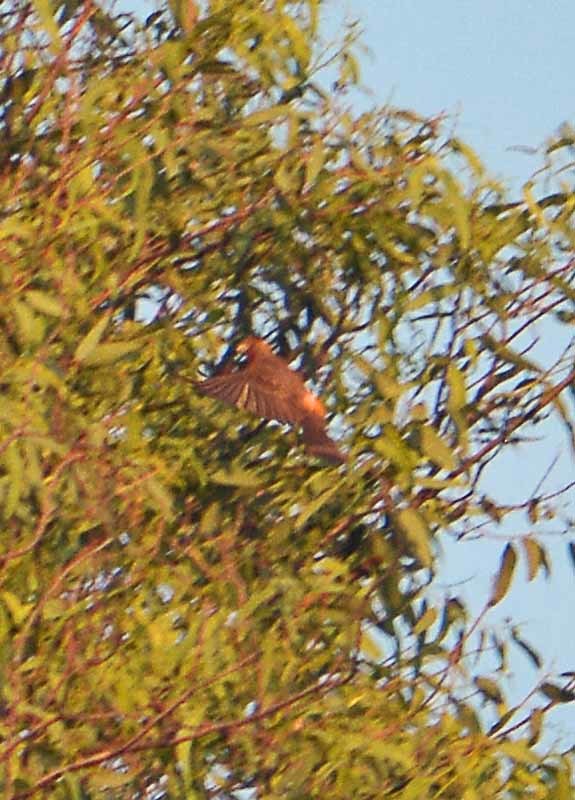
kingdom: Animalia
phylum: Chordata
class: Aves
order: Passeriformes
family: Fringillidae
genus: Haemorhous
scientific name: Haemorhous mexicanus
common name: House finch
